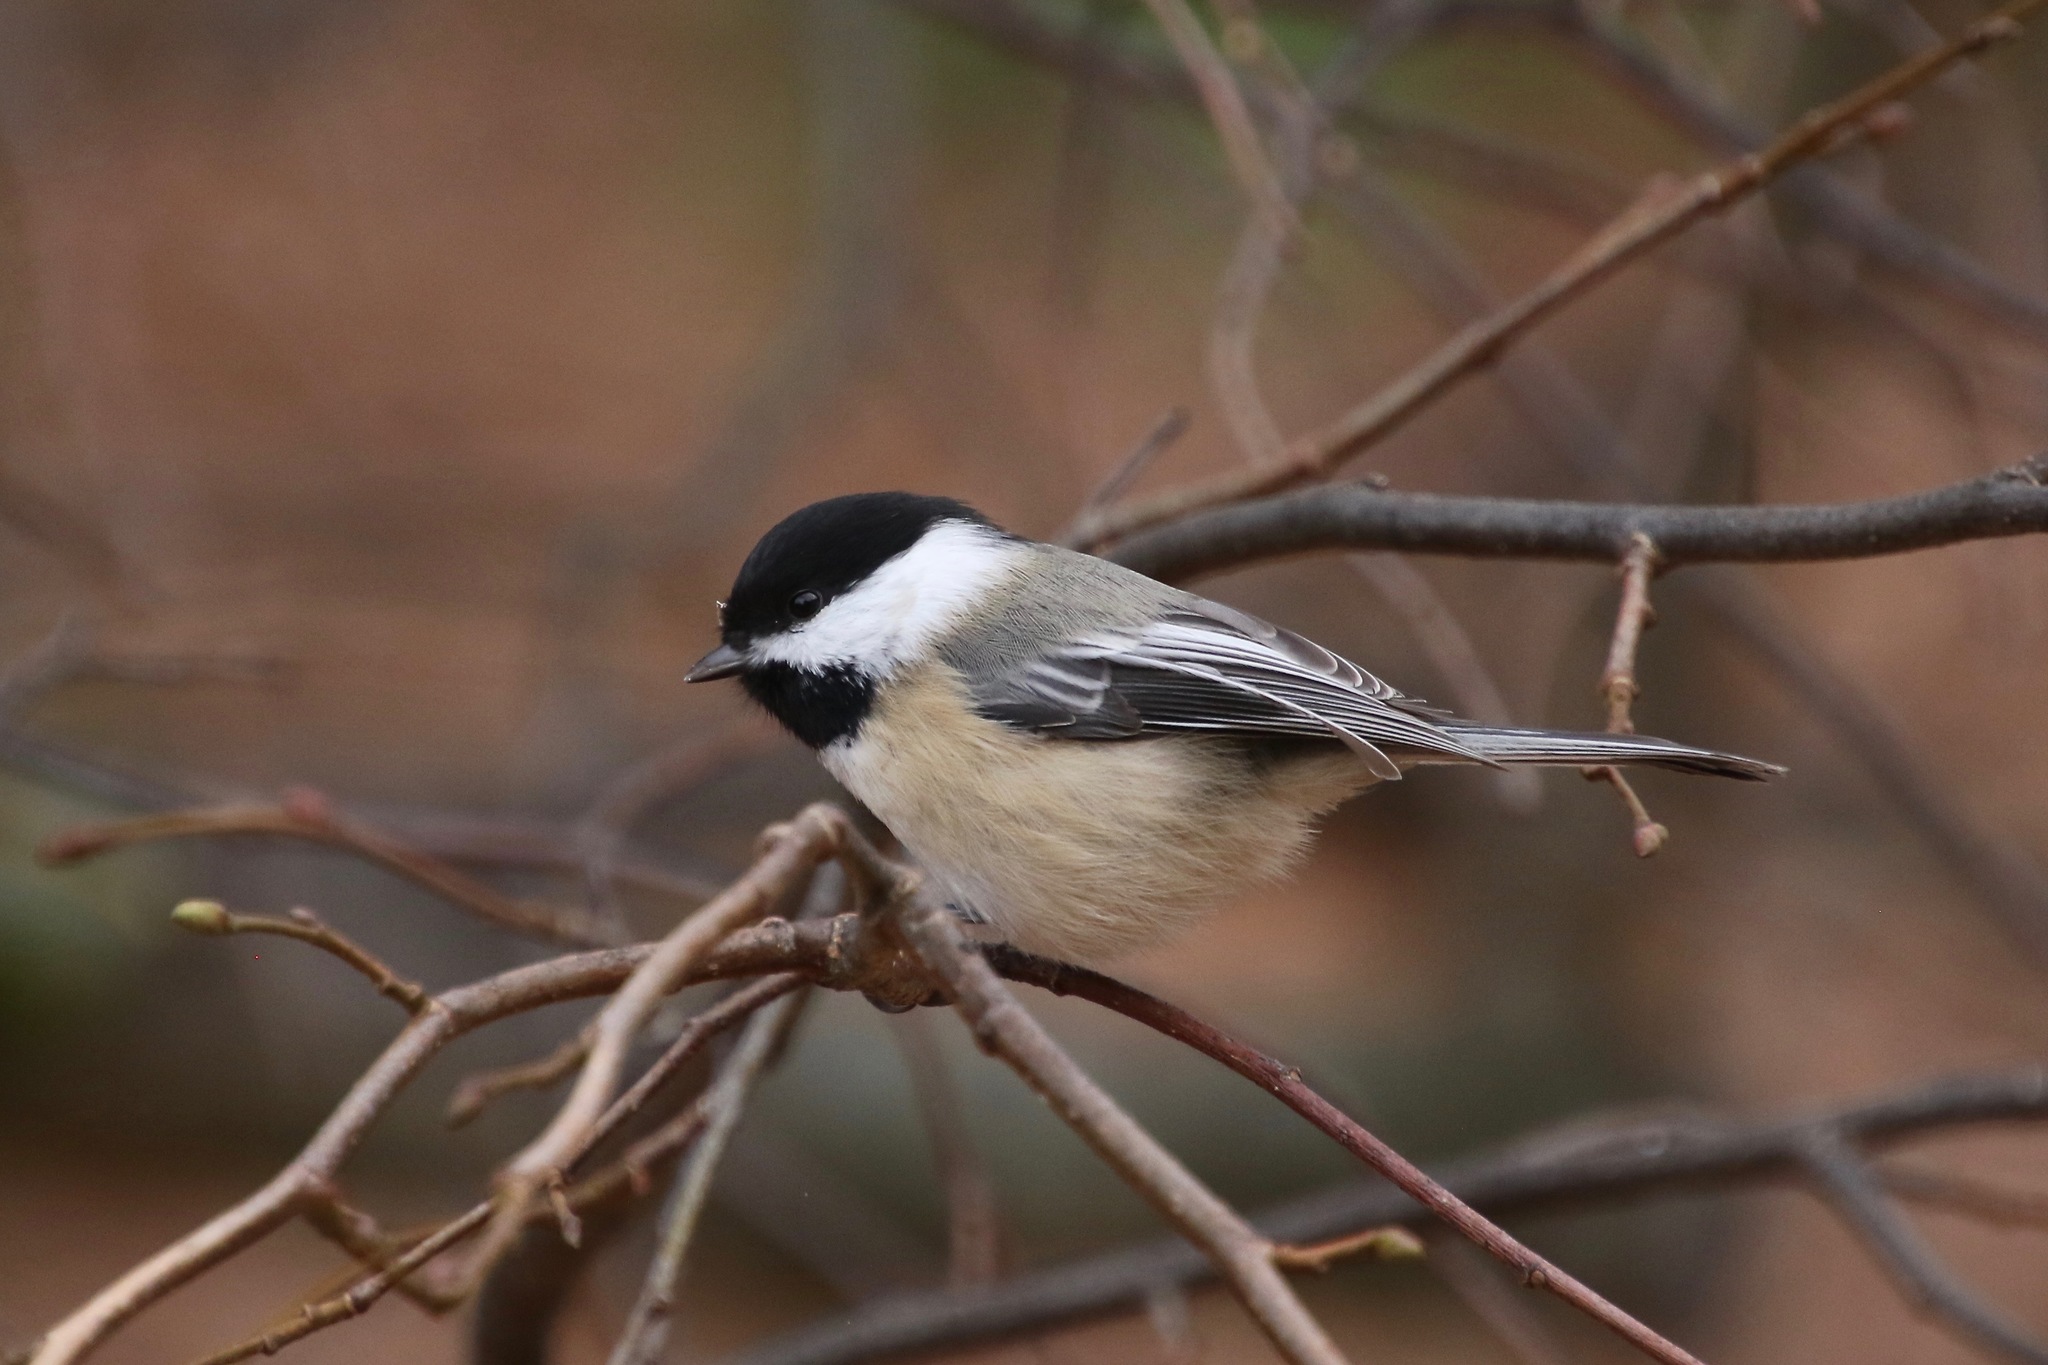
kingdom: Animalia
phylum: Chordata
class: Aves
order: Passeriformes
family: Paridae
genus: Poecile
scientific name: Poecile atricapillus
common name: Black-capped chickadee
